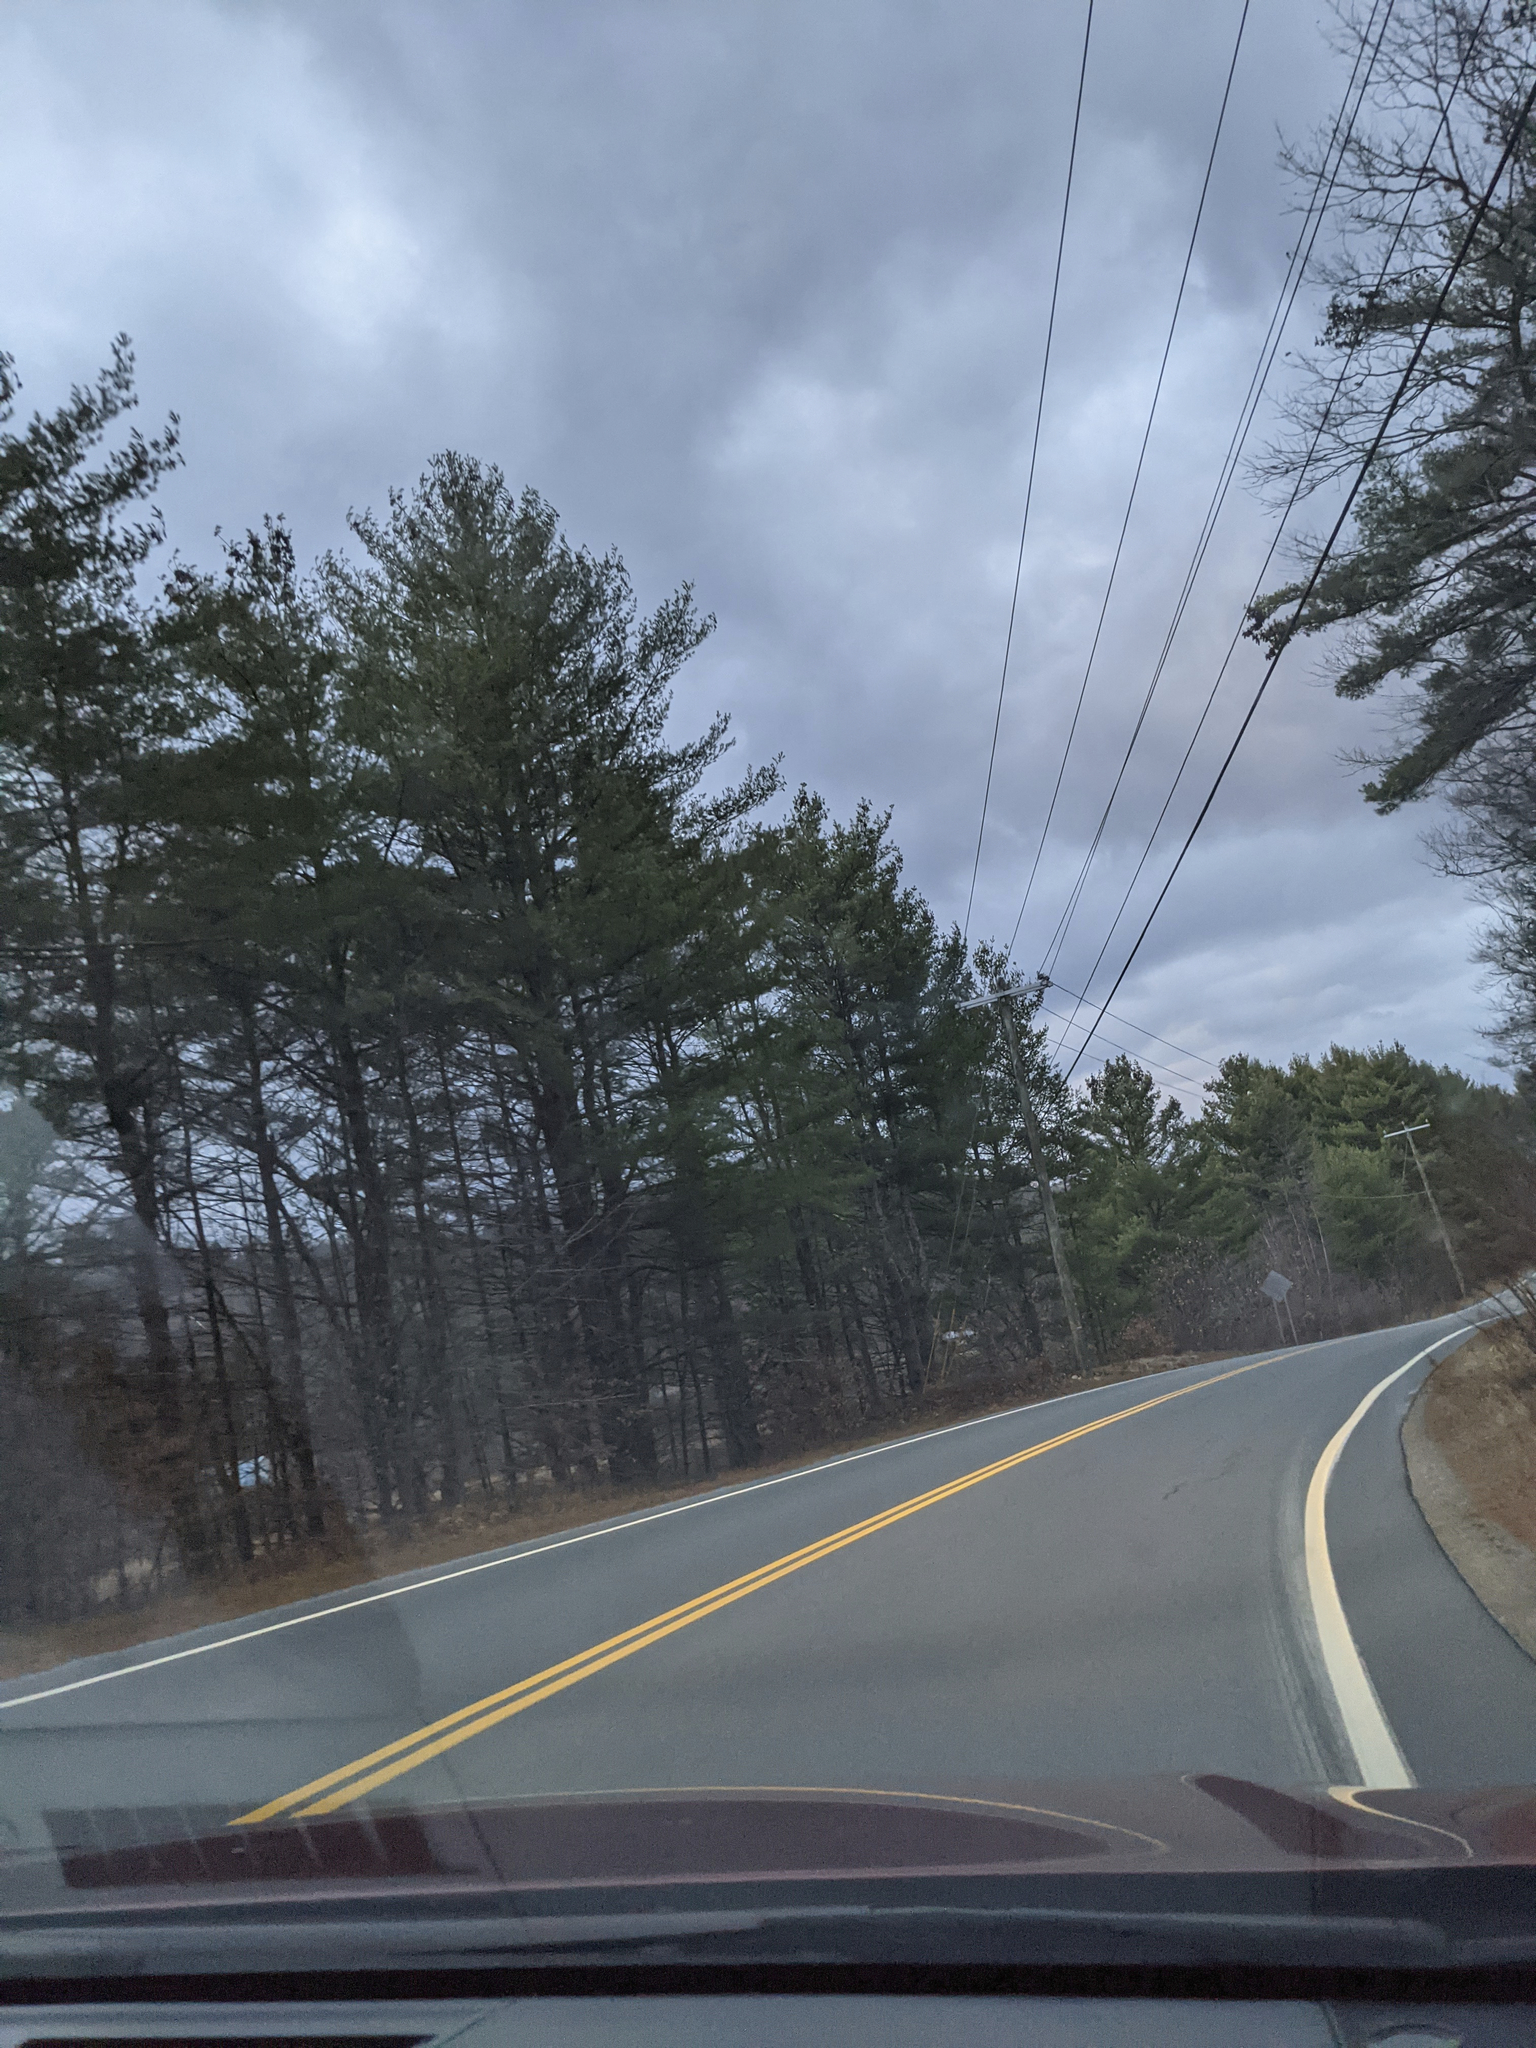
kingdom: Plantae
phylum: Tracheophyta
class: Pinopsida
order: Pinales
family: Pinaceae
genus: Pinus
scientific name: Pinus strobus
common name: Weymouth pine
